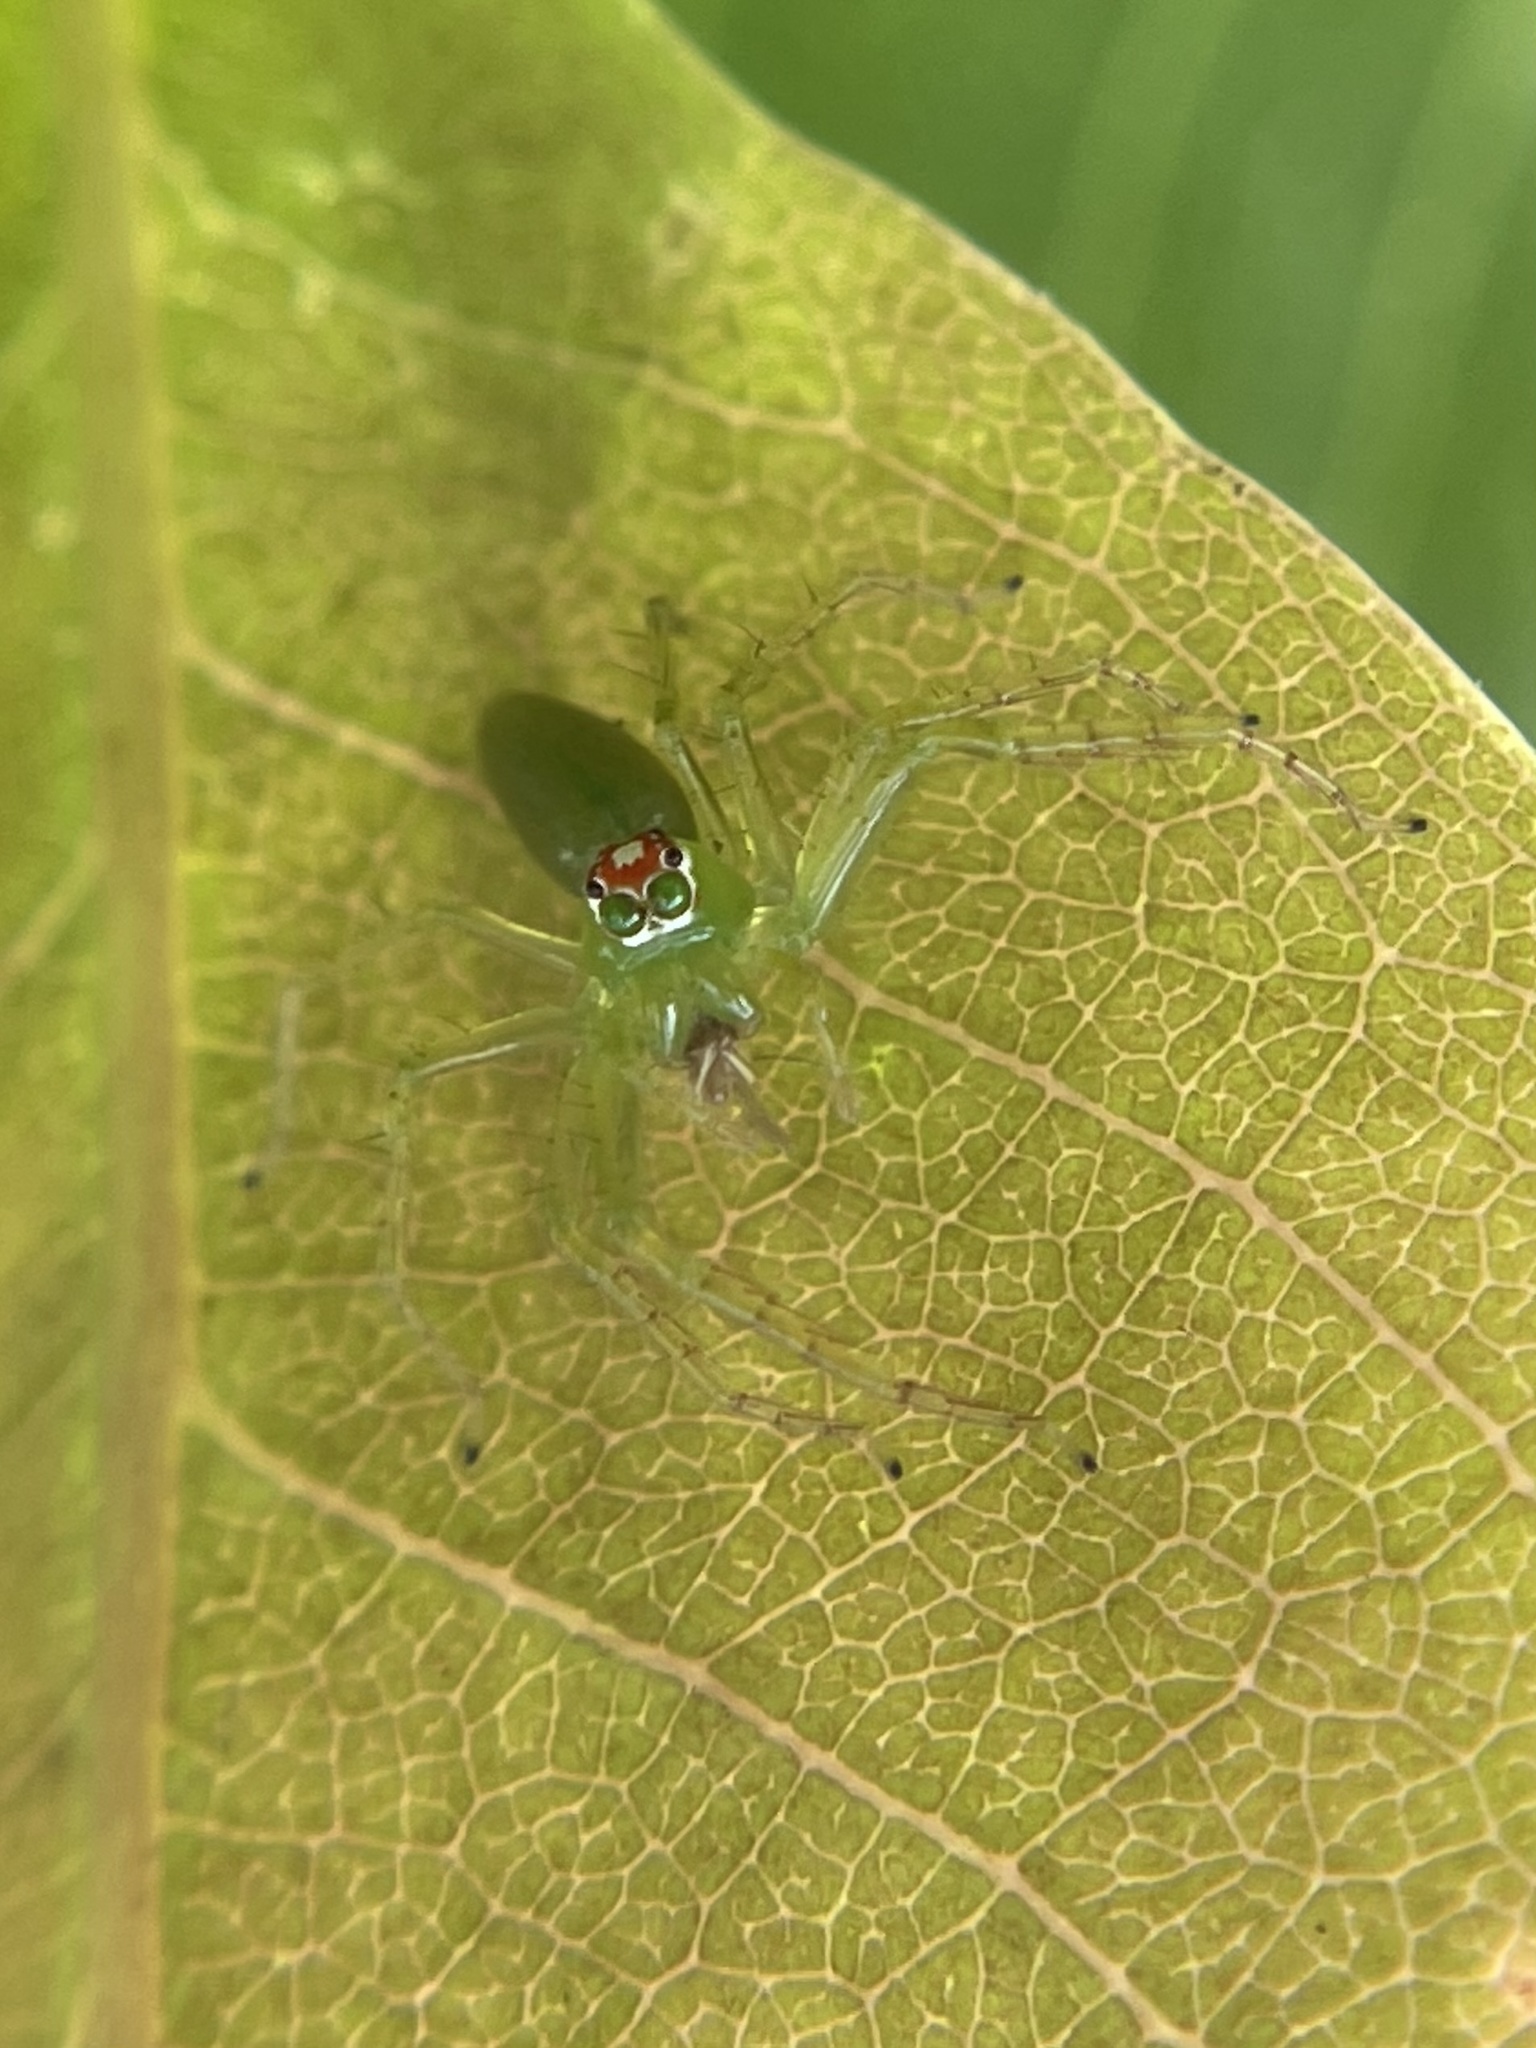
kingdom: Animalia
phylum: Arthropoda
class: Arachnida
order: Araneae
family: Salticidae
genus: Lyssomanes
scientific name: Lyssomanes viridis
